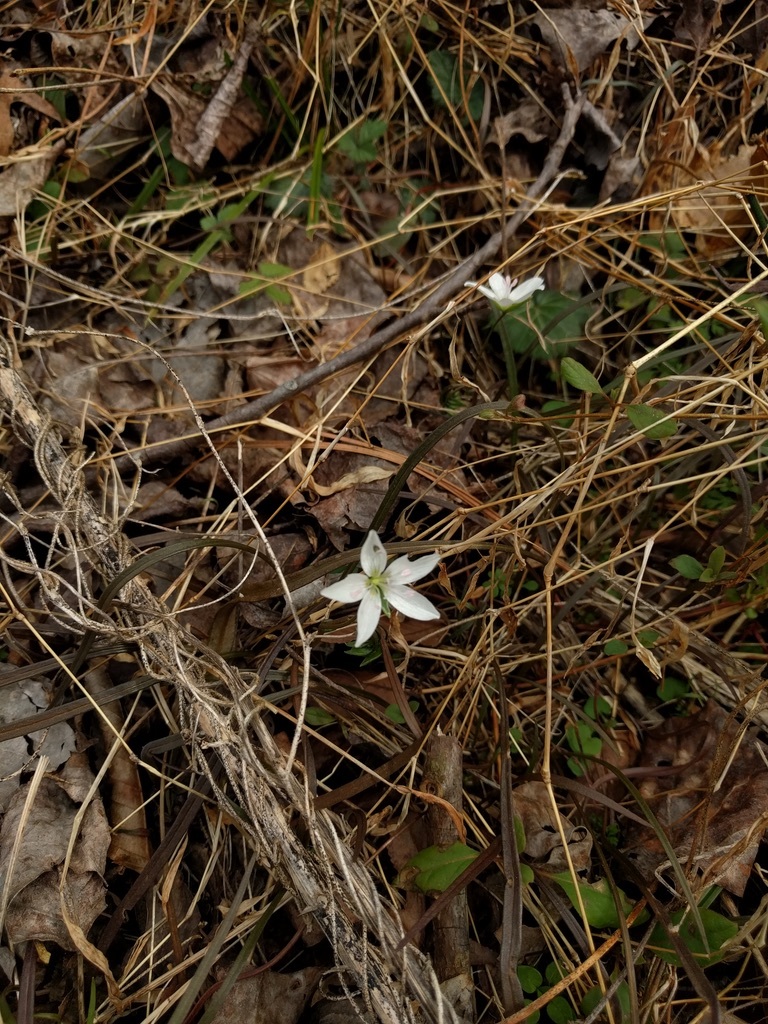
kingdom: Plantae
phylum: Tracheophyta
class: Magnoliopsida
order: Caryophyllales
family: Montiaceae
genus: Claytonia
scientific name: Claytonia virginica
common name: Virginia springbeauty
